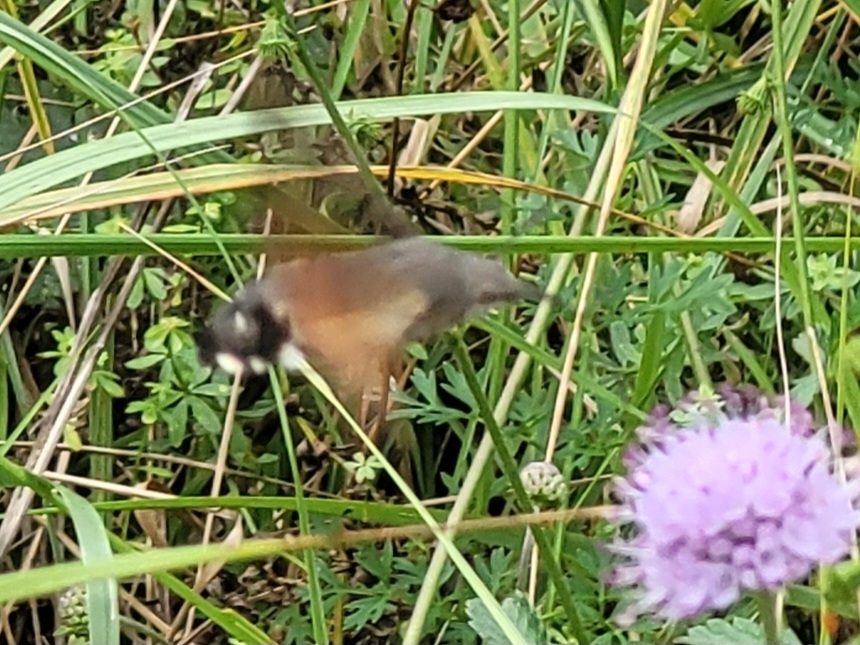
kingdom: Animalia
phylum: Arthropoda
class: Insecta
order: Lepidoptera
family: Sphingidae
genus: Macroglossum
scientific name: Macroglossum stellatarum
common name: Humming-bird hawk-moth
